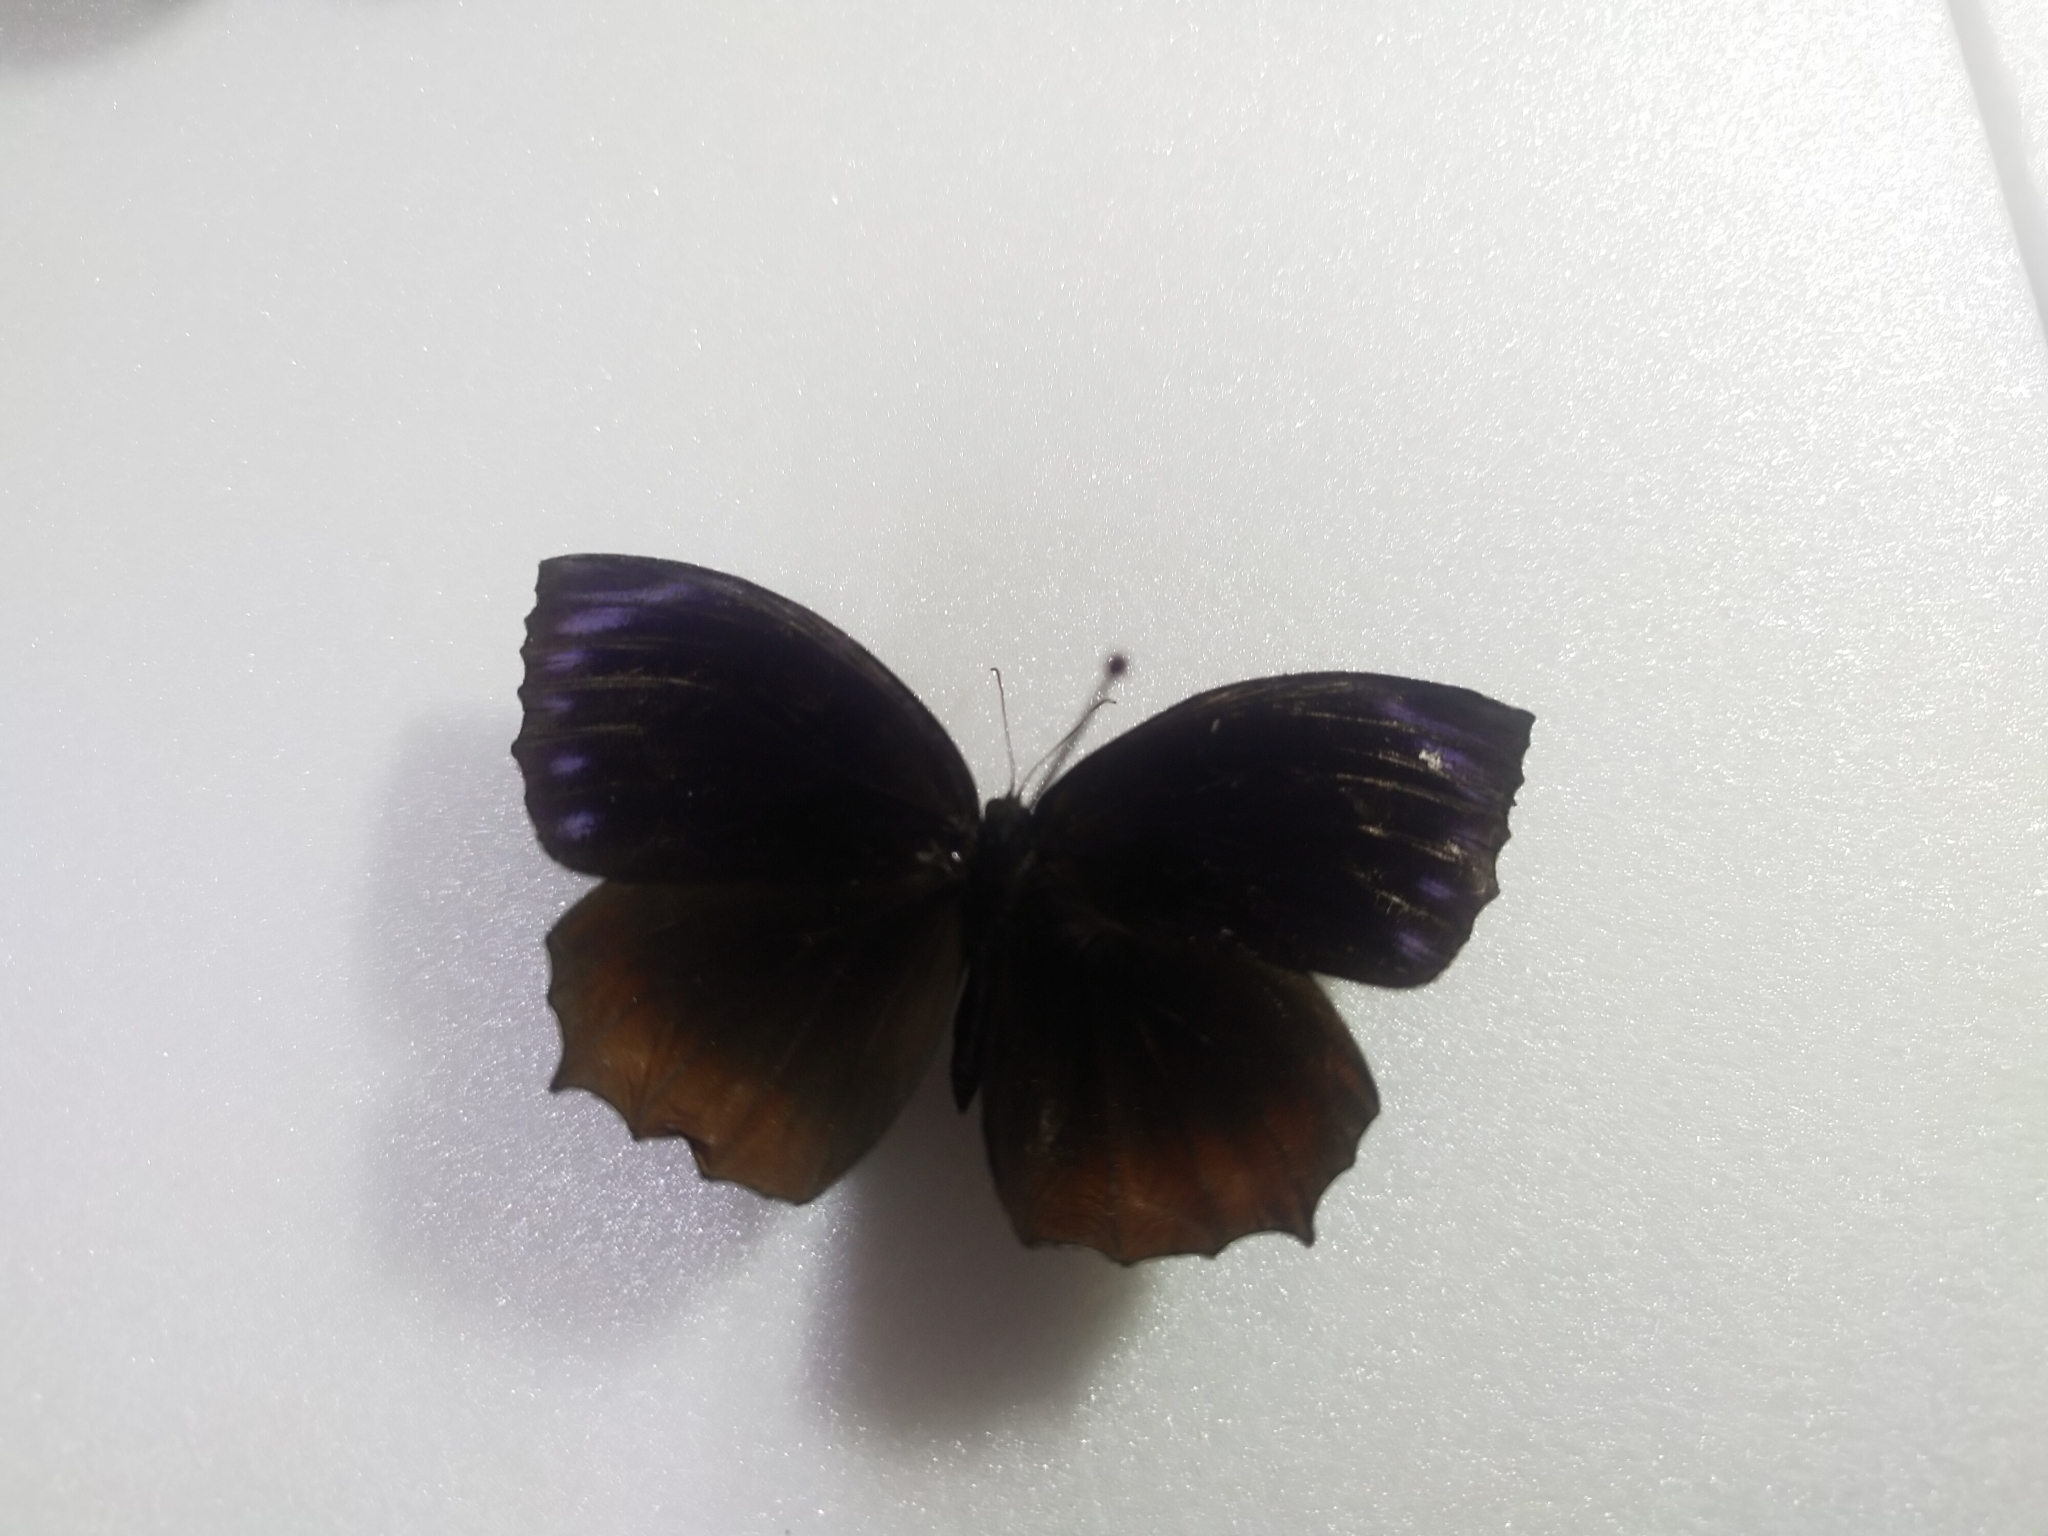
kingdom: Animalia
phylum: Arthropoda
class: Insecta
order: Lepidoptera
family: Nymphalidae
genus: Elymnias
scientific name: Elymnias hypermnestra
